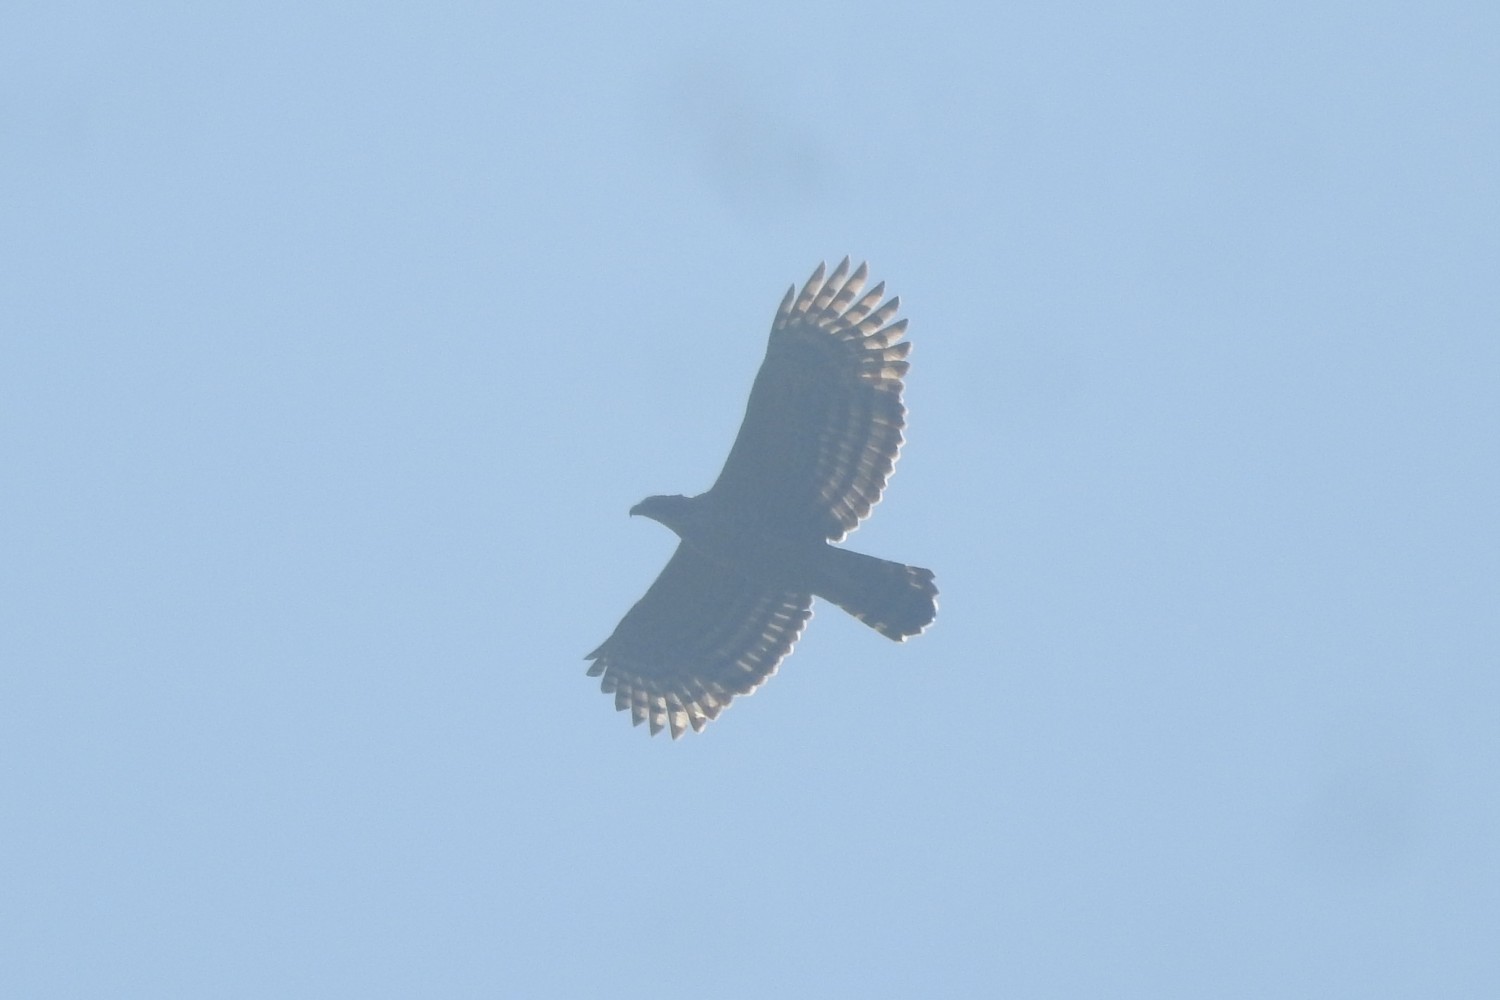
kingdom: Animalia
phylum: Chordata
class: Aves
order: Accipitriformes
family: Accipitridae
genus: Nisaetus
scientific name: Nisaetus kelaarti
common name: Legge's hawk-eagle
